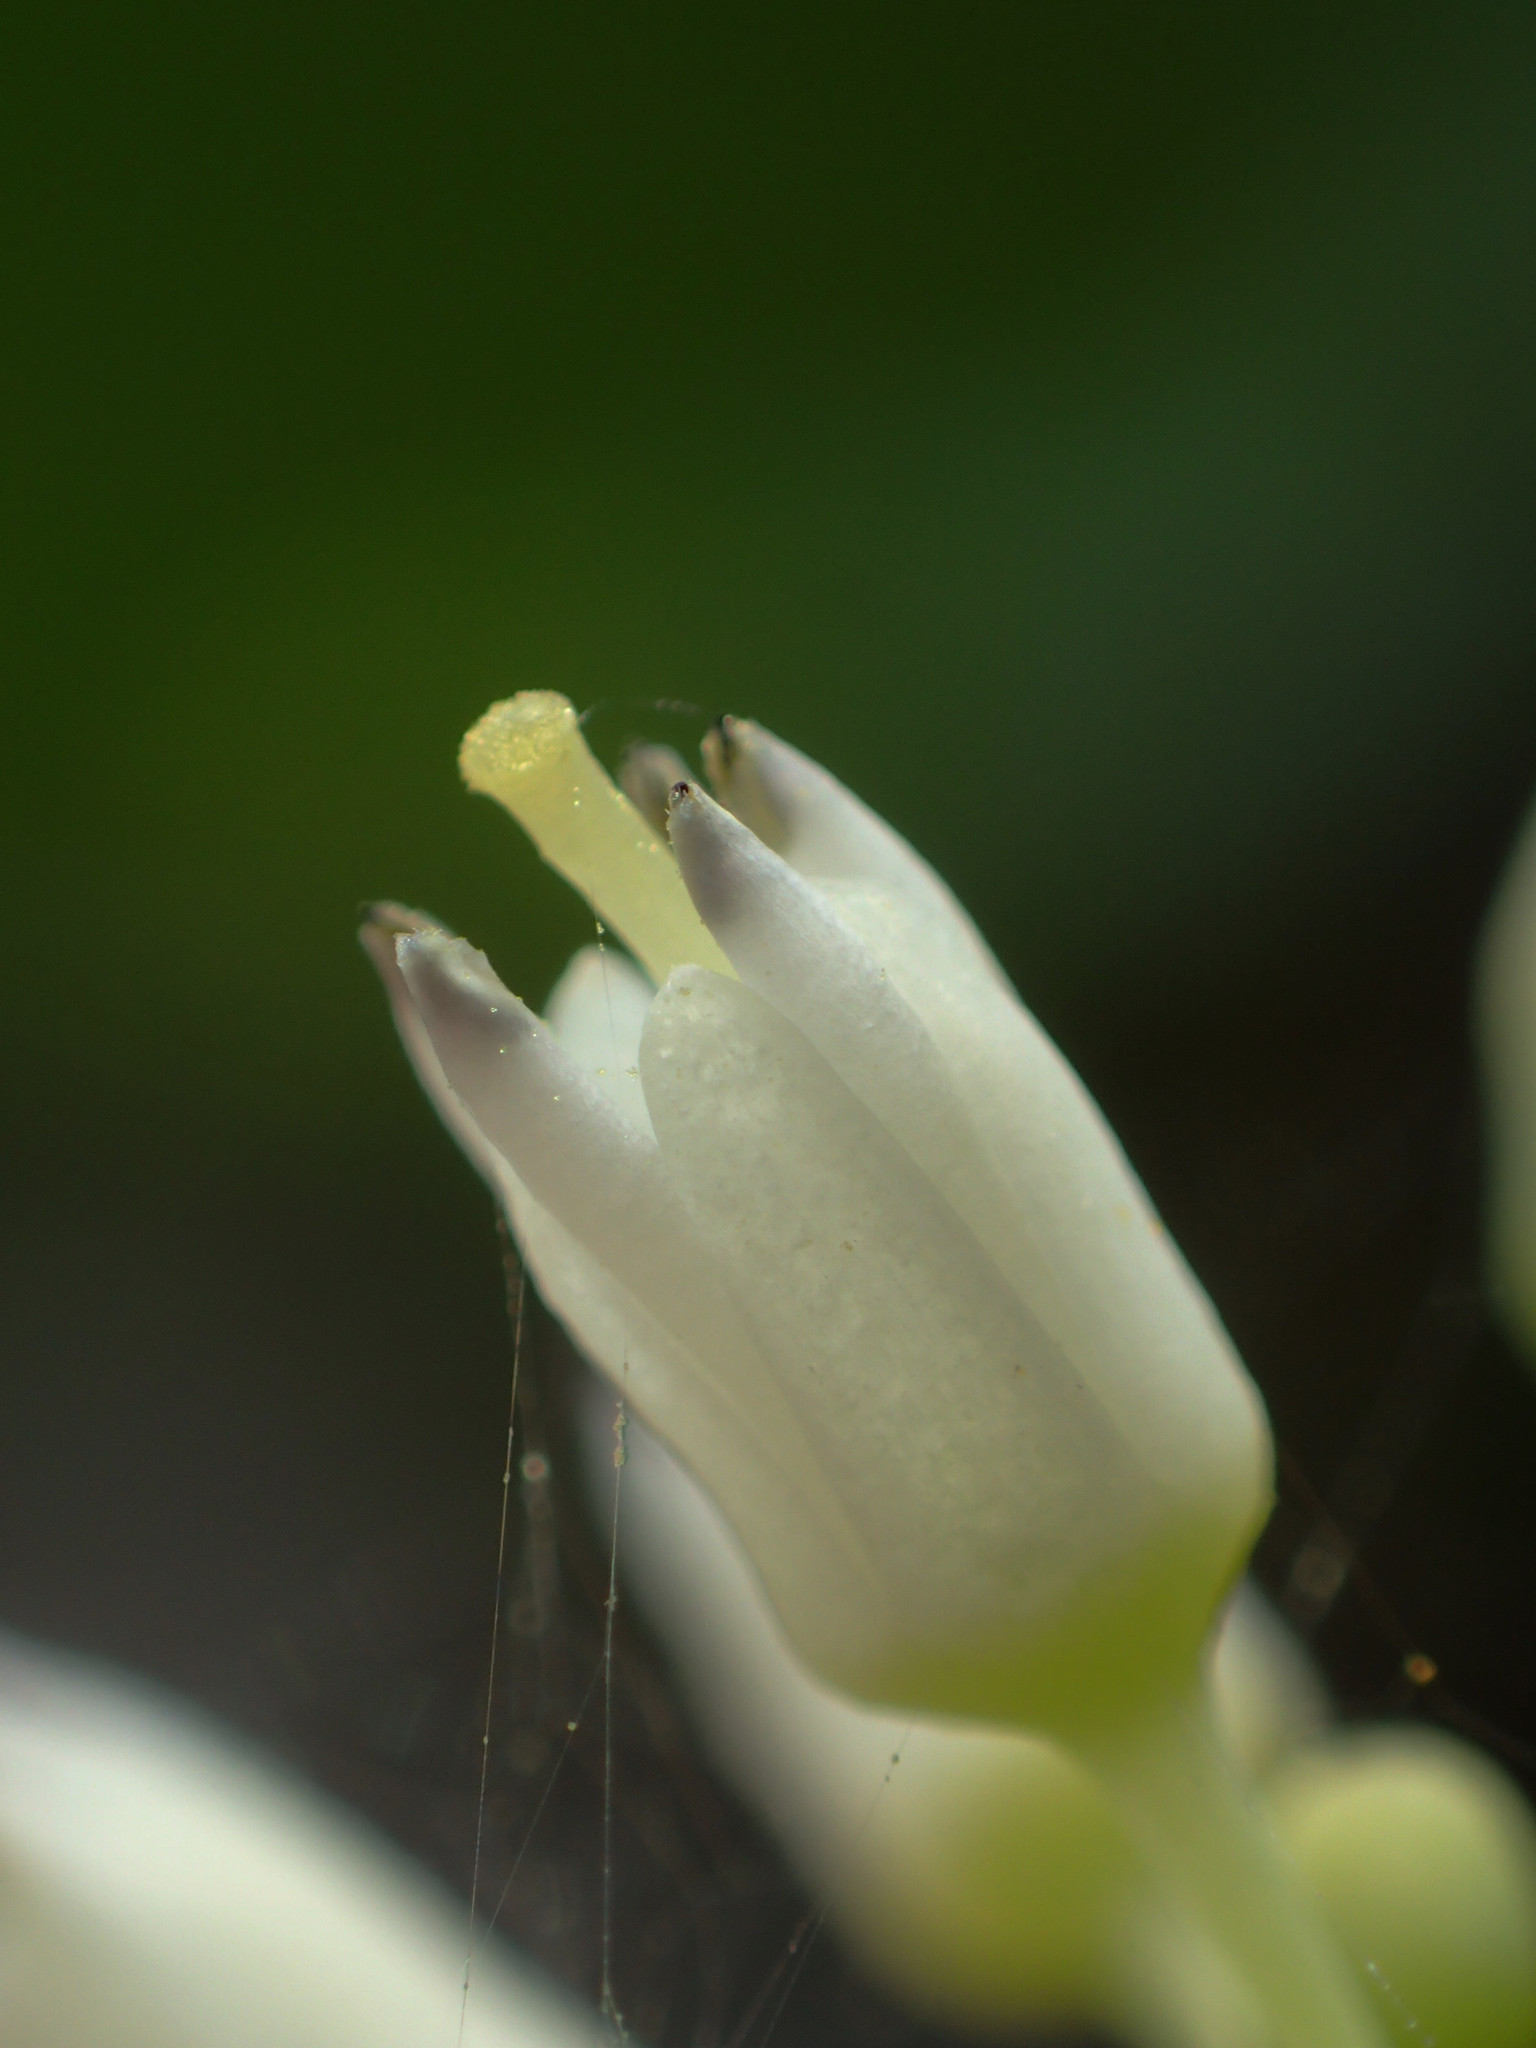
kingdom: Plantae
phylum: Tracheophyta
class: Magnoliopsida
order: Rosales
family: Rhamnaceae
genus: Berchemia
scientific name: Berchemia lineata
